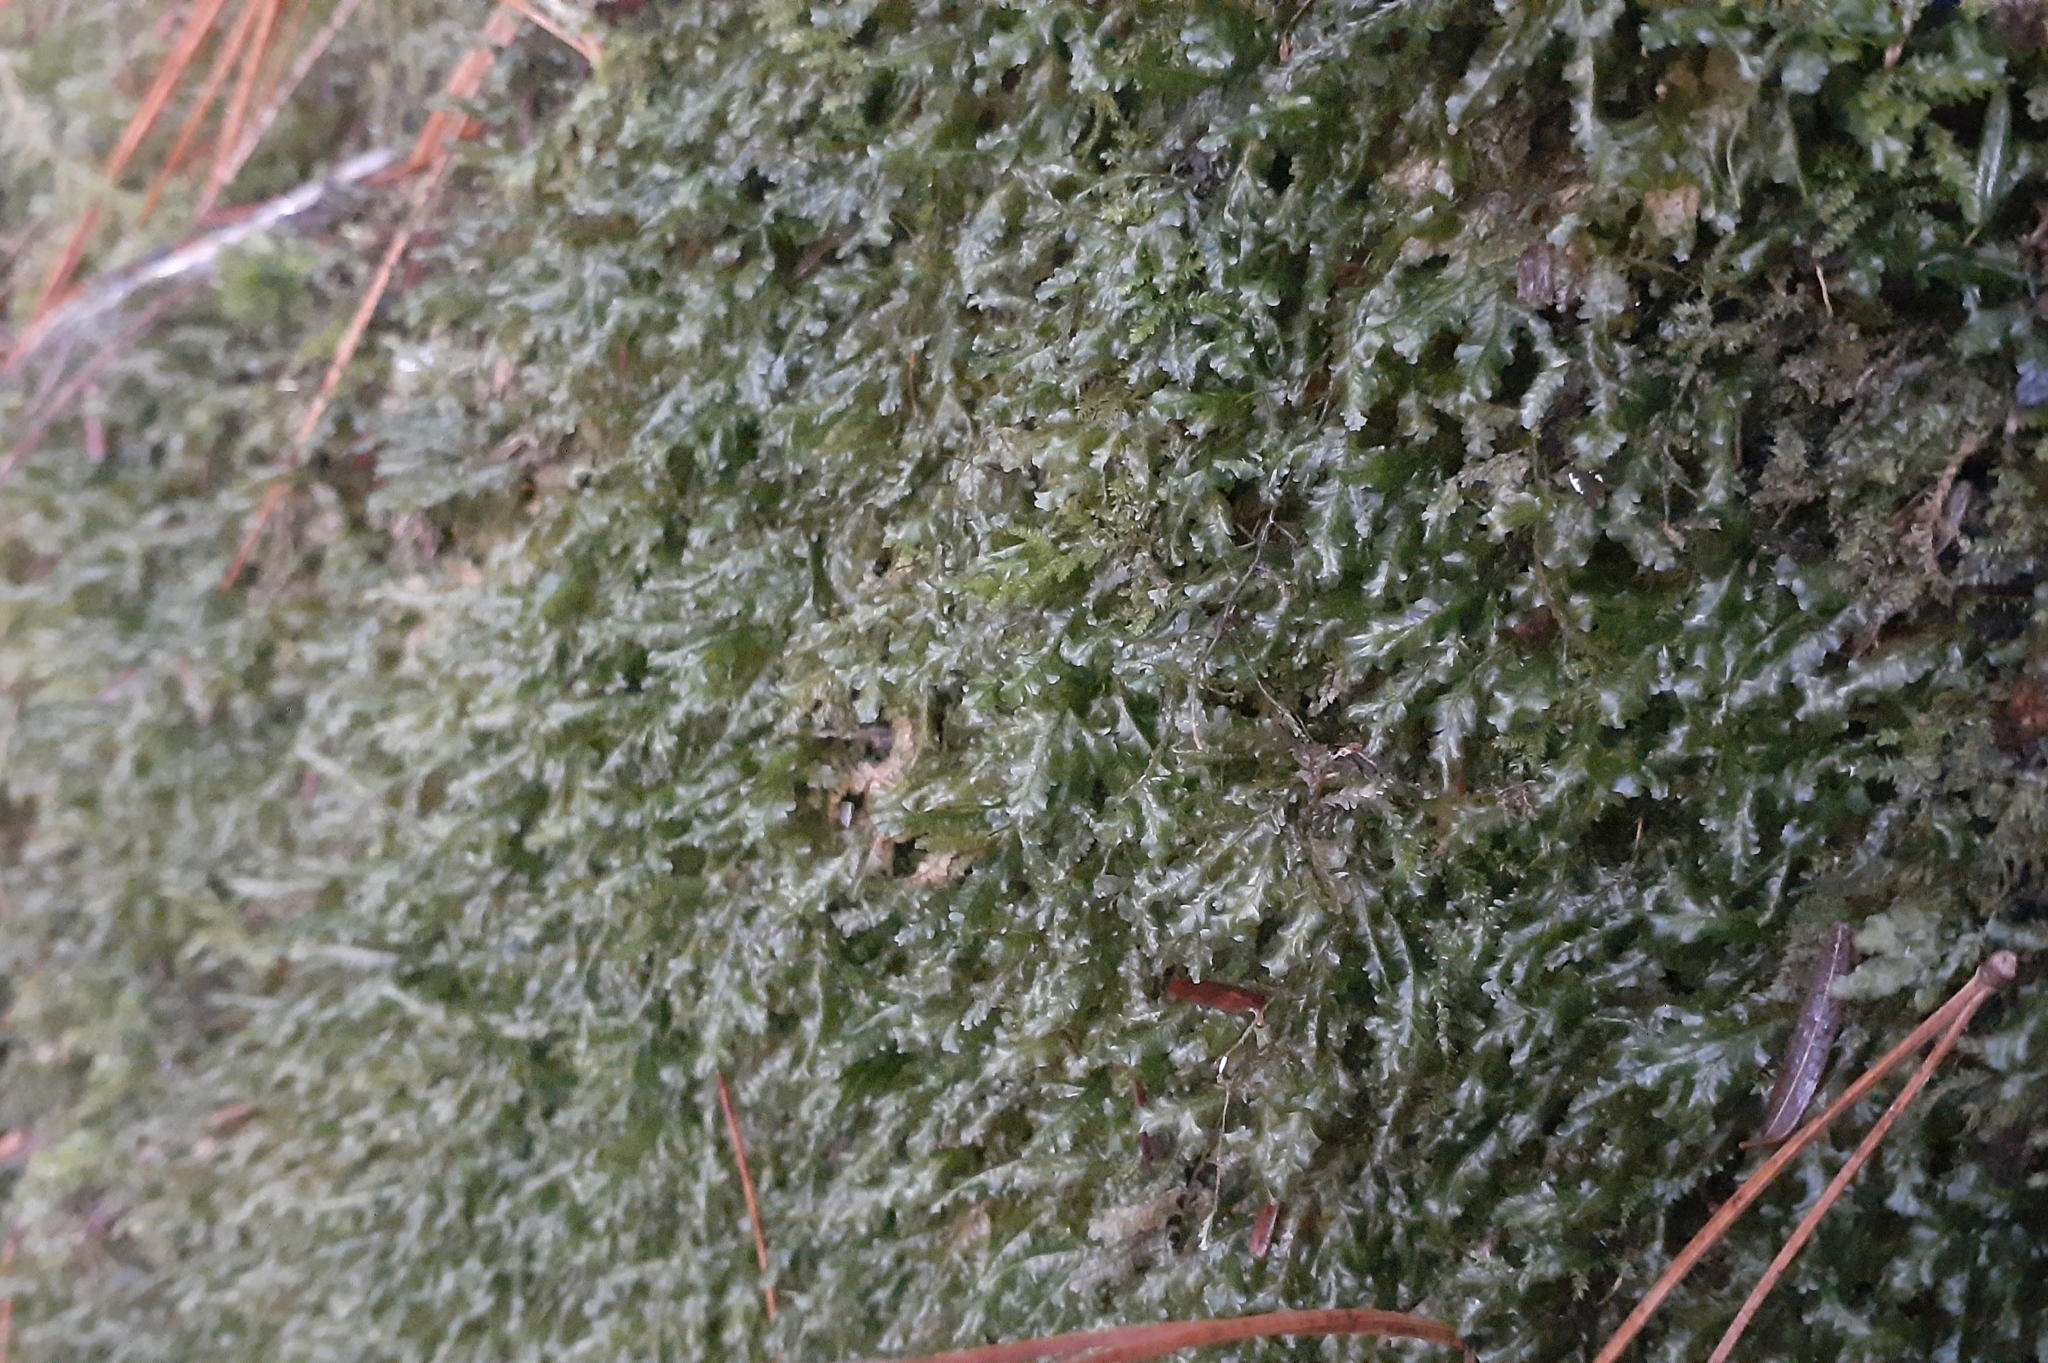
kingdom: Plantae
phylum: Bryophyta
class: Bryopsida
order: Hypnales
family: Neckeraceae
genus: Homalia
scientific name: Homalia trichomanoides
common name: Lime homalia moss
